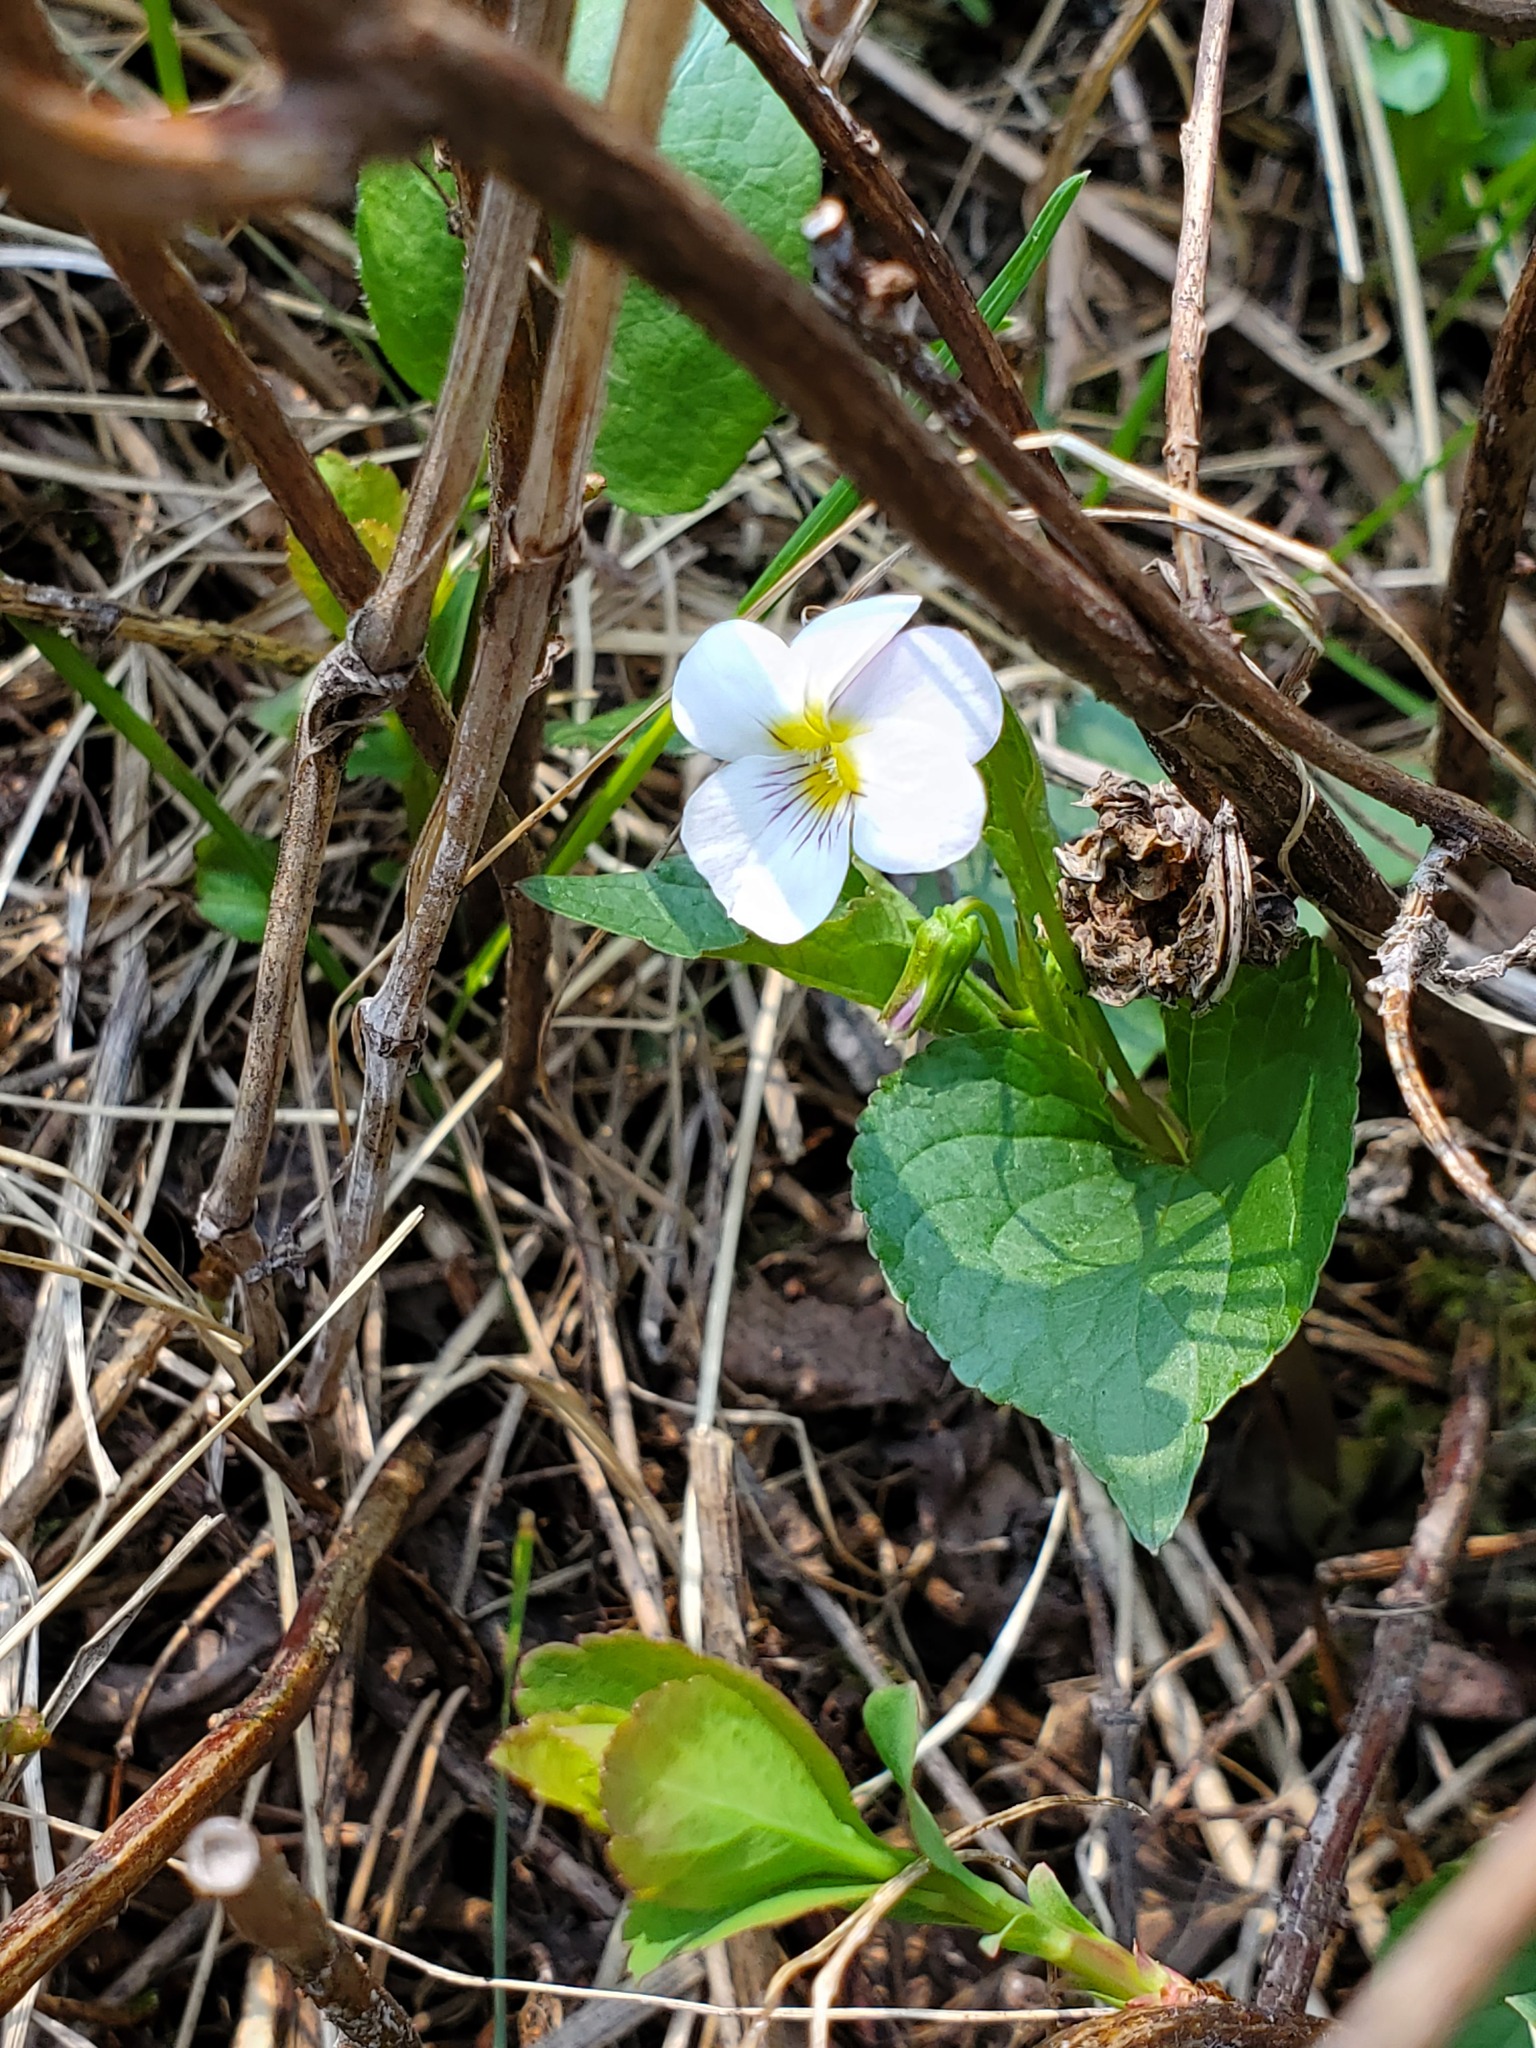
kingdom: Plantae
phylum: Tracheophyta
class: Magnoliopsida
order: Malpighiales
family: Violaceae
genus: Viola
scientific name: Viola canadensis
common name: Canada violet
